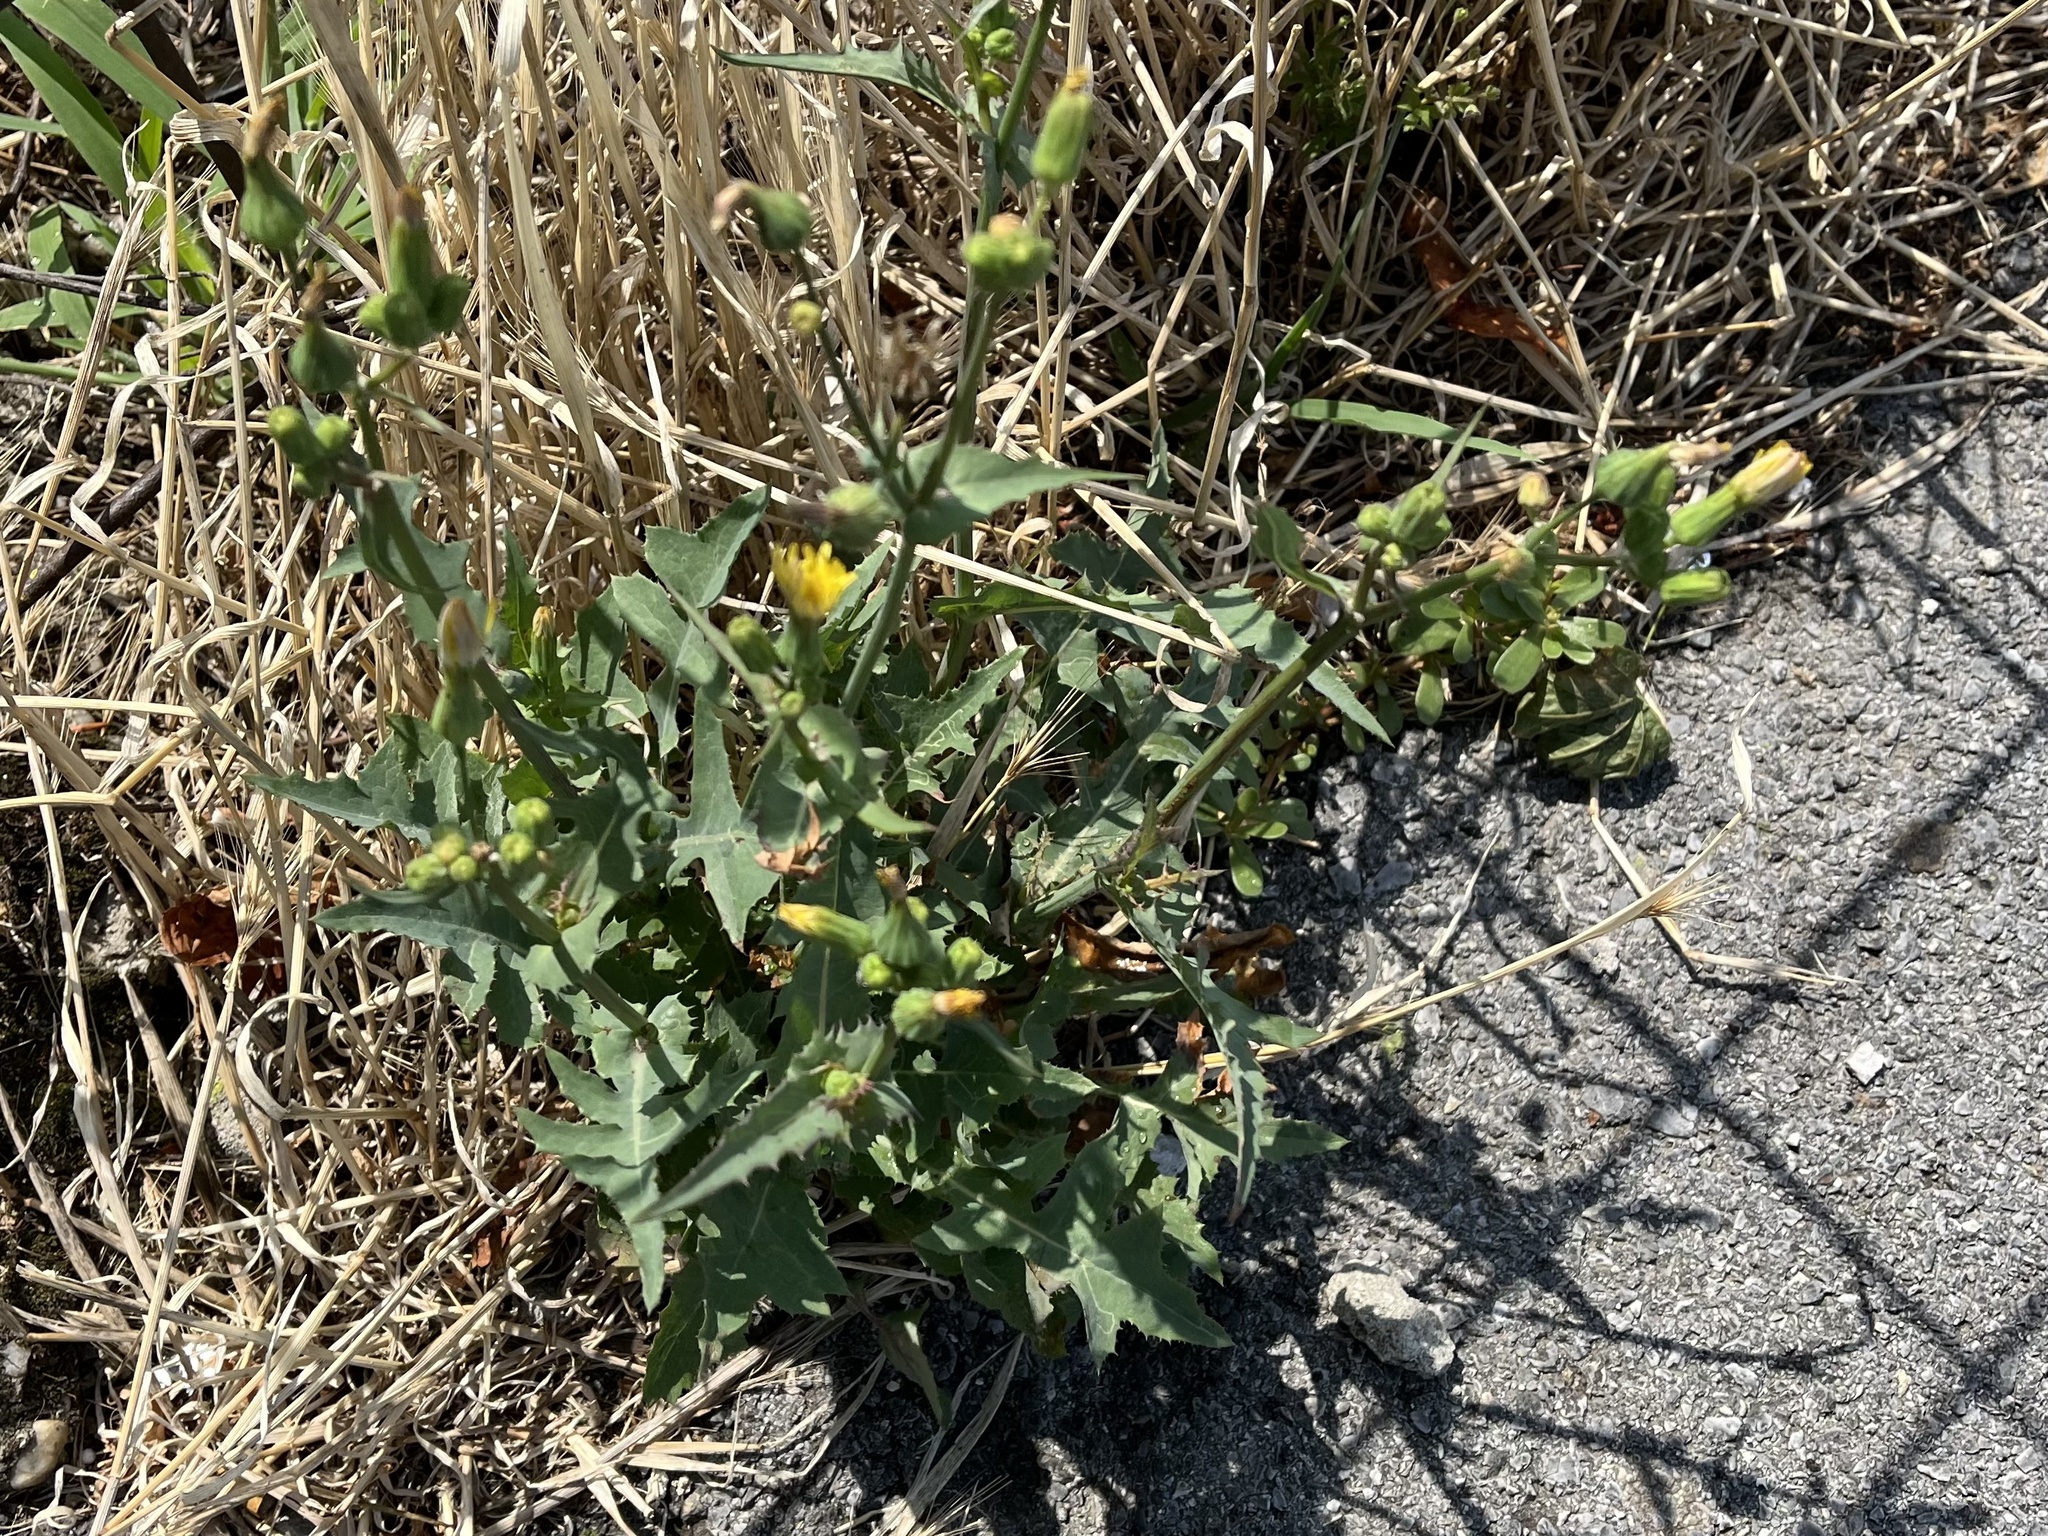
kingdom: Plantae
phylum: Tracheophyta
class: Magnoliopsida
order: Asterales
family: Asteraceae
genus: Sonchus
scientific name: Sonchus oleraceus
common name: Common sowthistle
